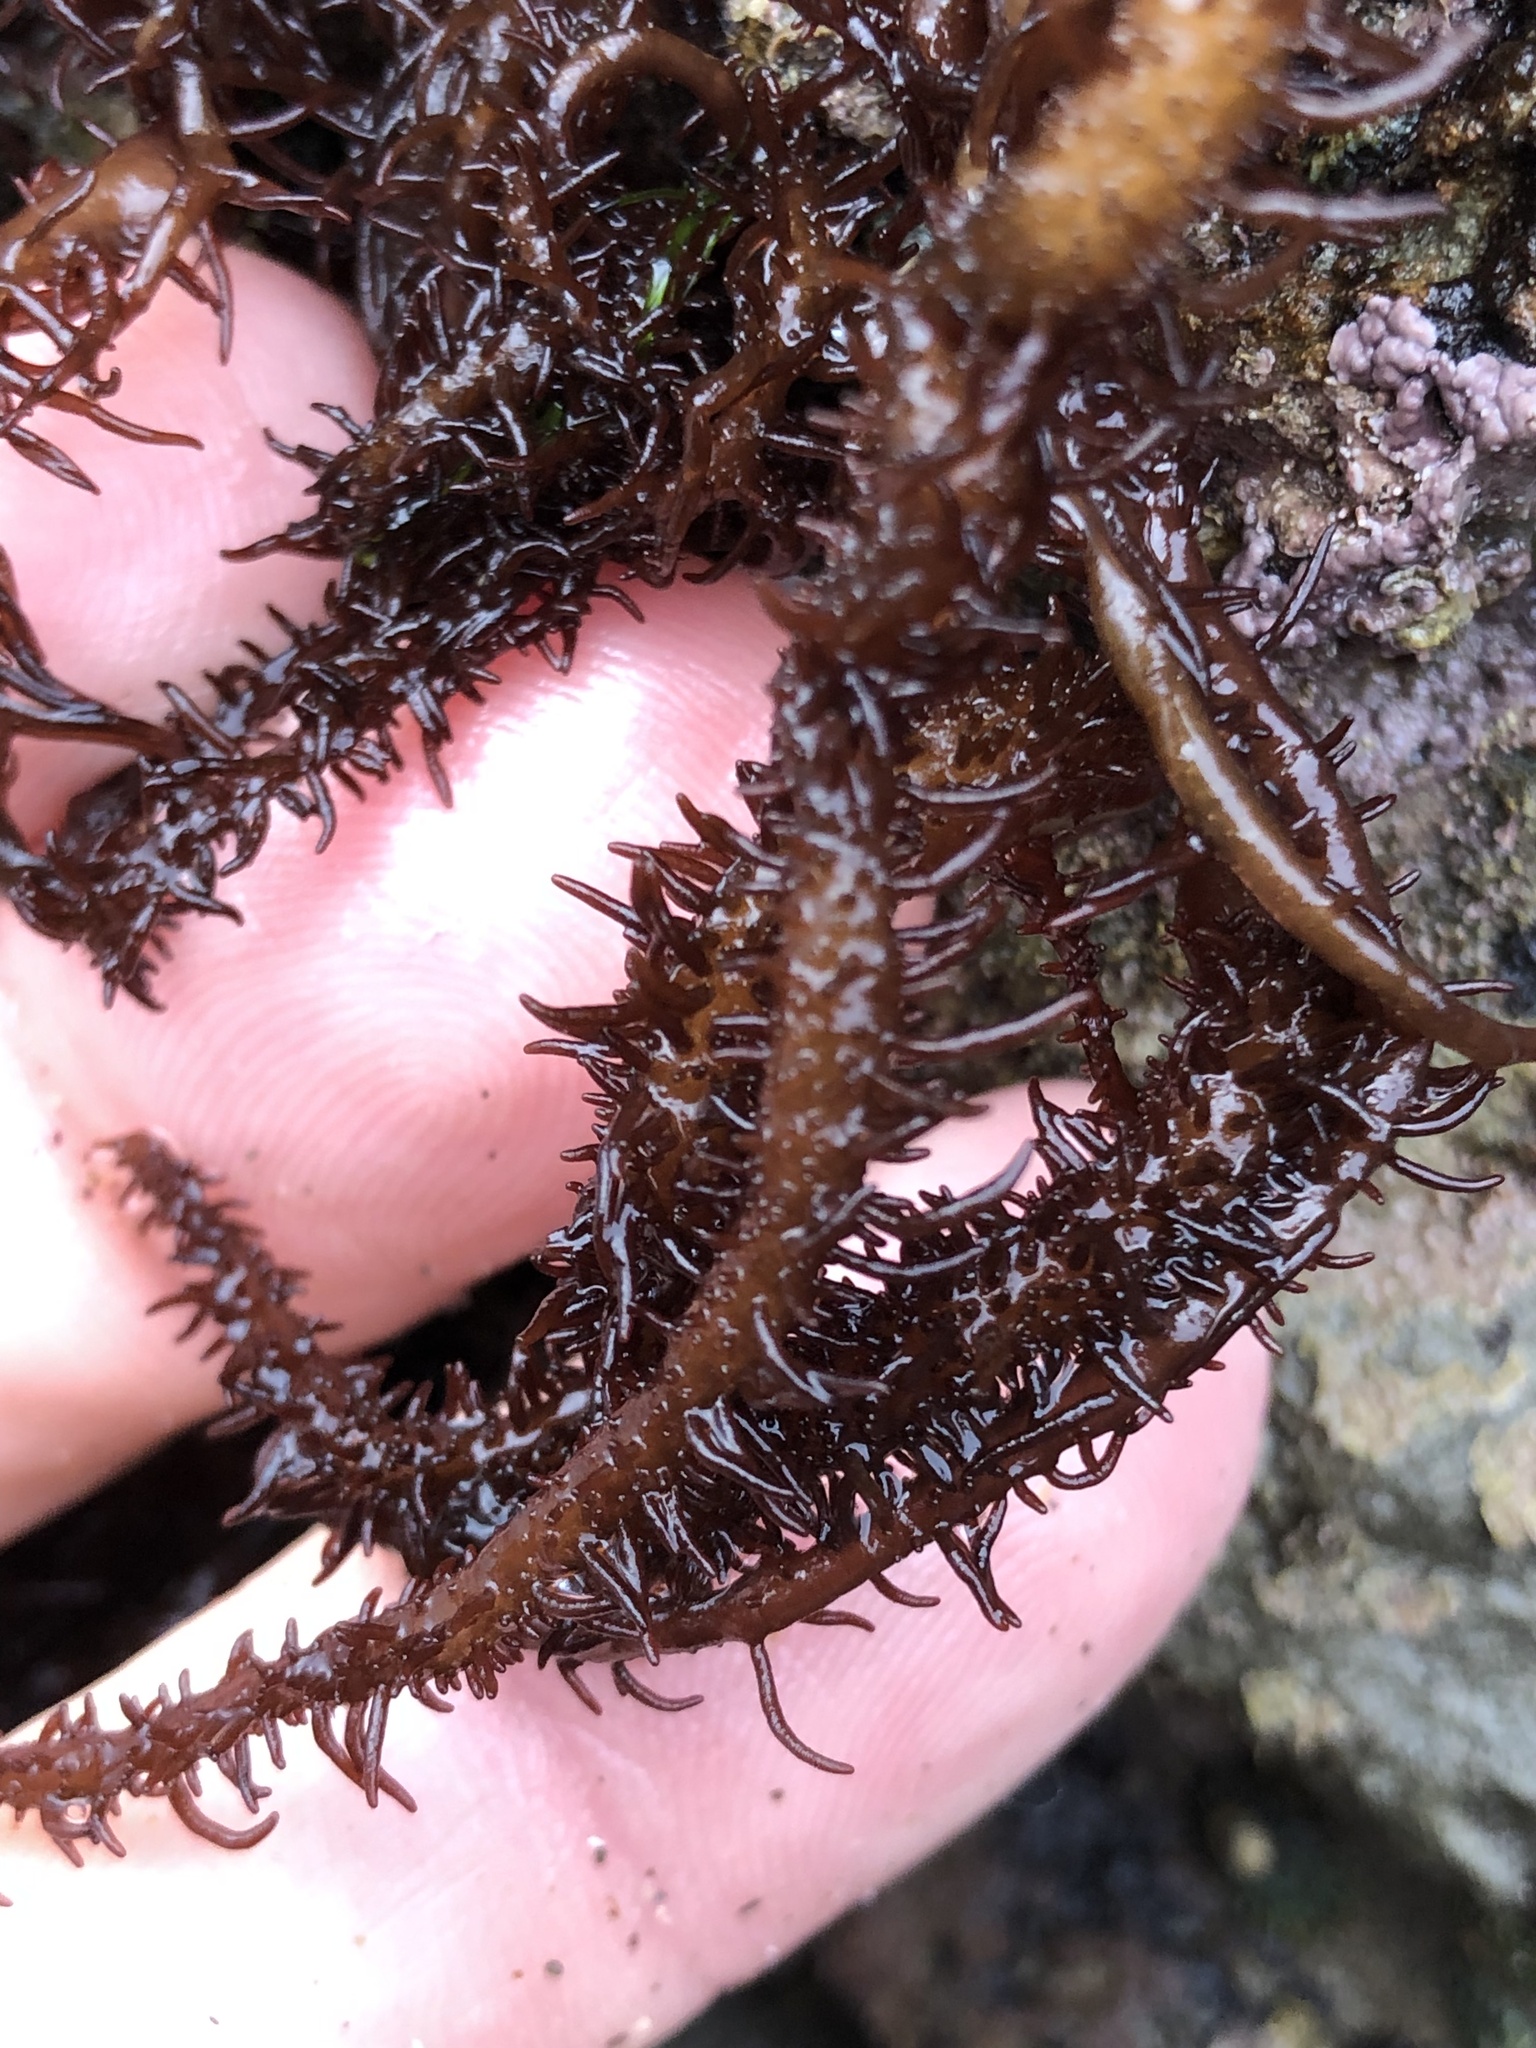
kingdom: Plantae
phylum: Rhodophyta
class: Florideophyceae
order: Nemaliales
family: Liagoraceae
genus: Cumagloia
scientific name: Cumagloia andersonii
